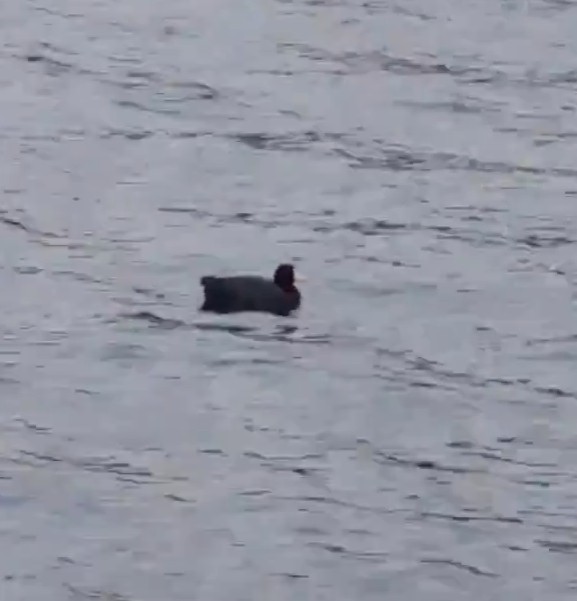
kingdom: Animalia
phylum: Chordata
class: Aves
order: Gruiformes
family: Rallidae
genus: Fulica
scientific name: Fulica americana
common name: American coot
